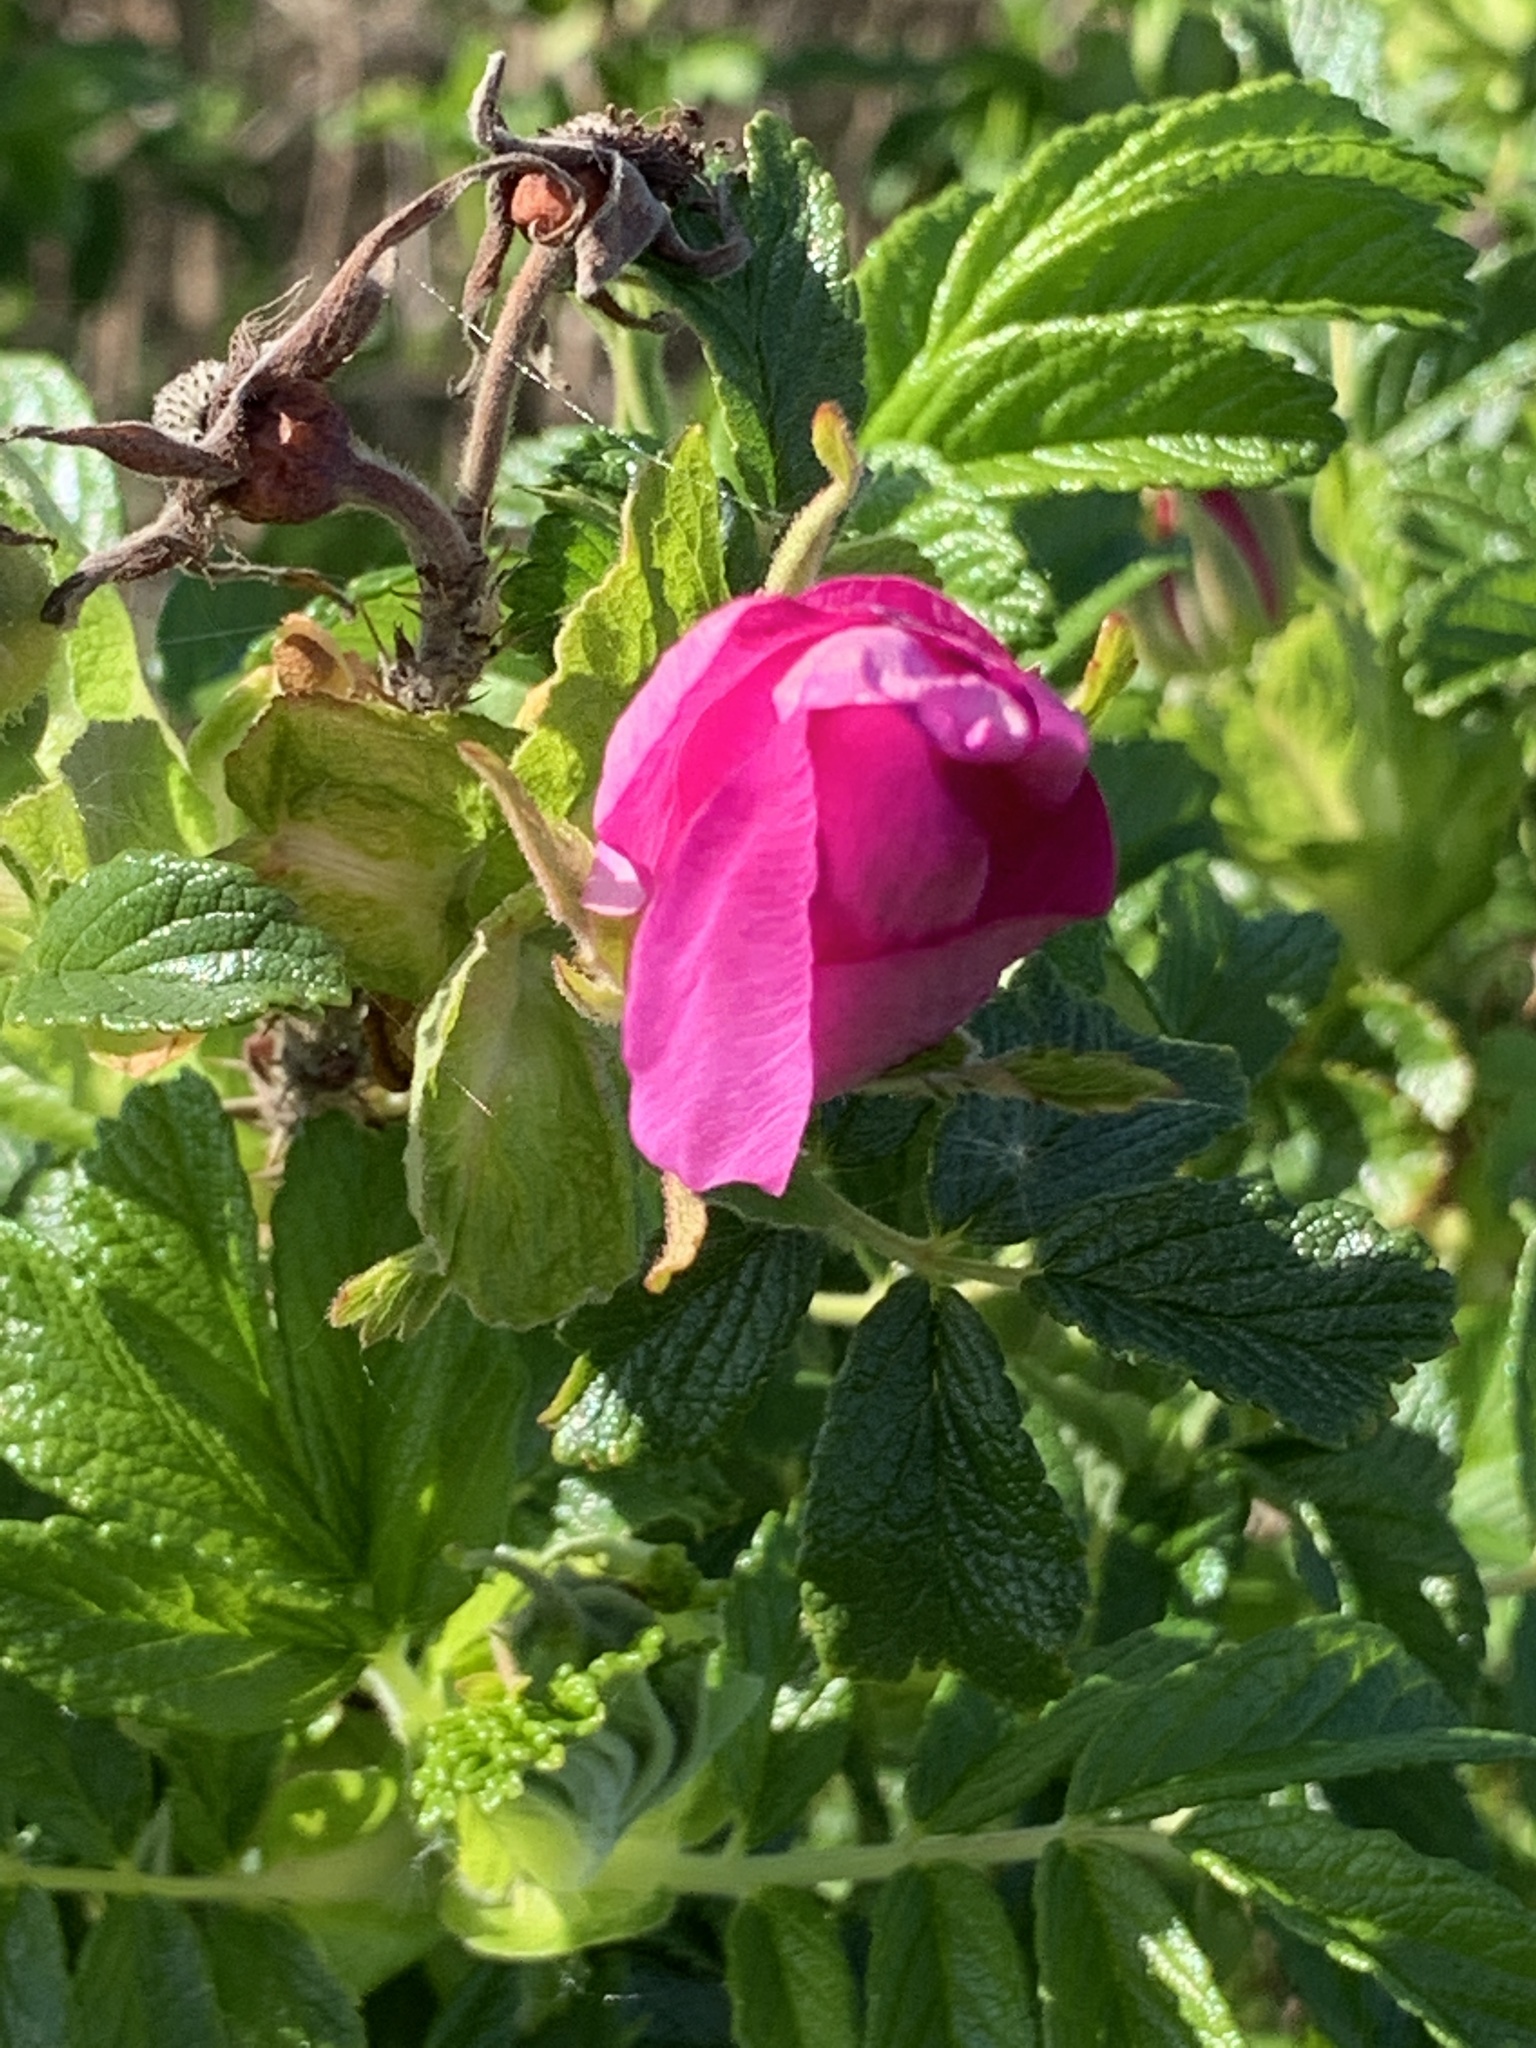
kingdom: Plantae
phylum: Tracheophyta
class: Magnoliopsida
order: Rosales
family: Rosaceae
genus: Rosa
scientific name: Rosa rugosa
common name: Japanese rose
